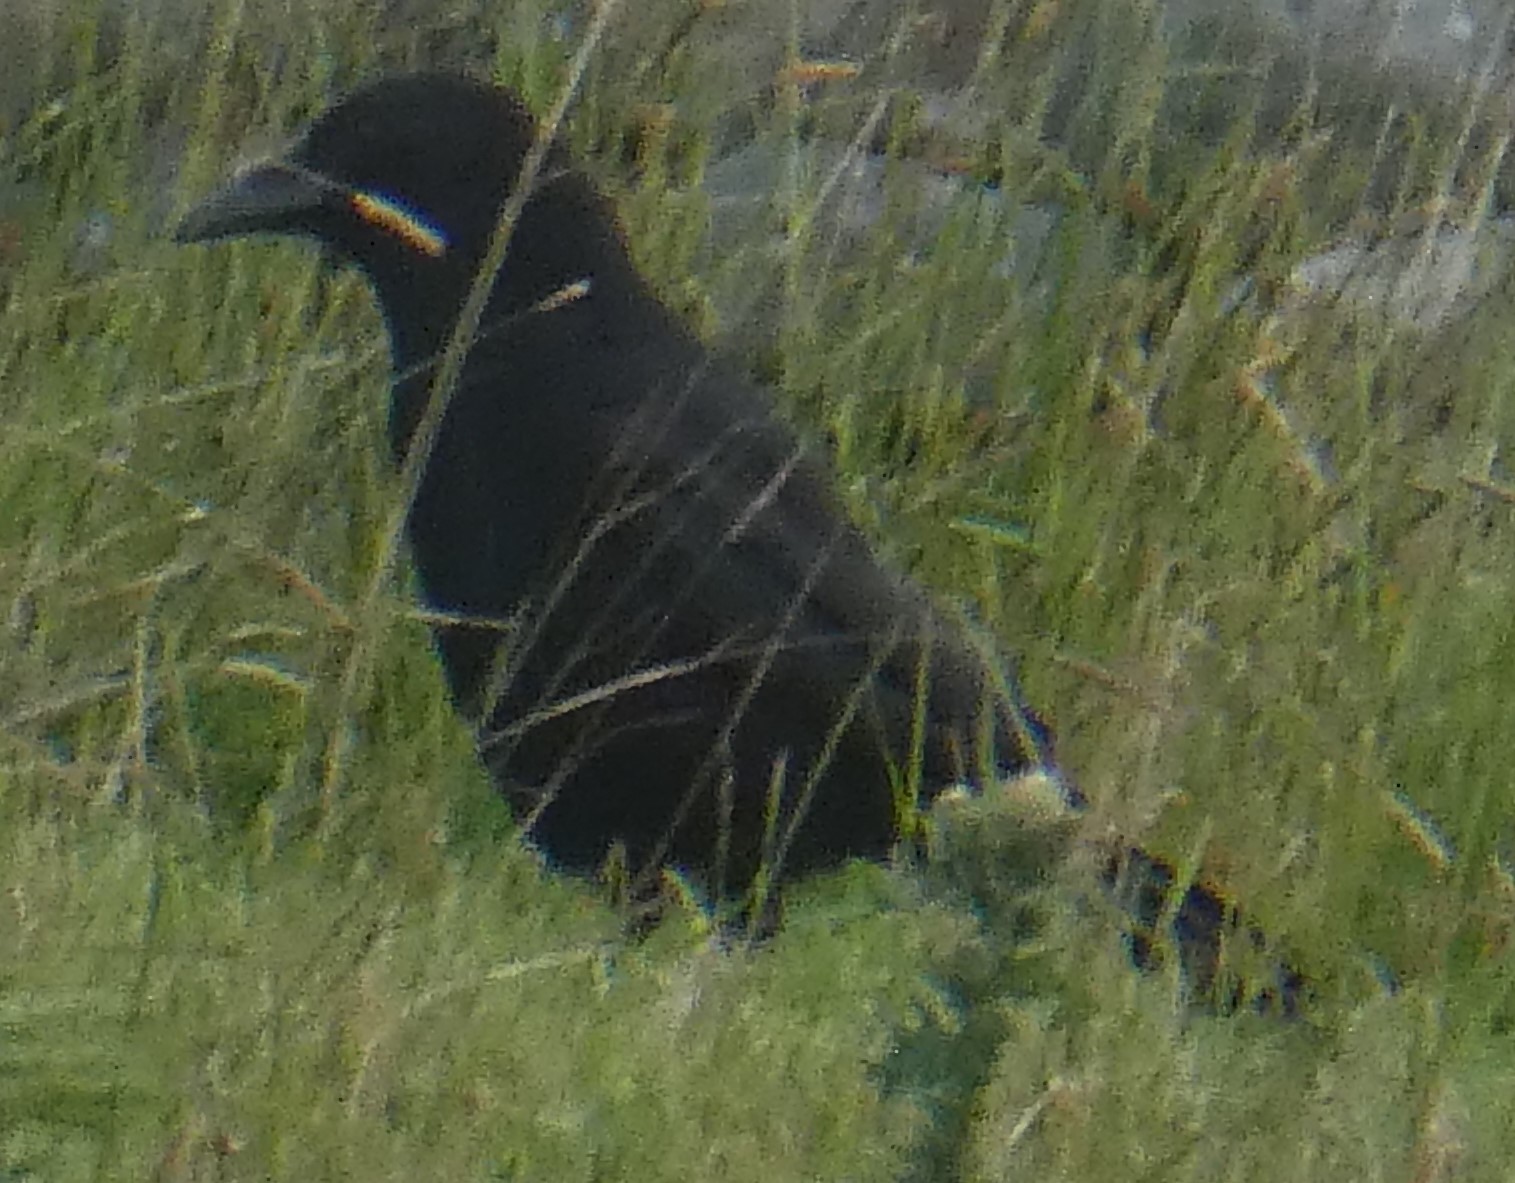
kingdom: Animalia
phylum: Chordata
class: Aves
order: Passeriformes
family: Corvidae
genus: Corvus
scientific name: Corvus corone
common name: Carrion crow
